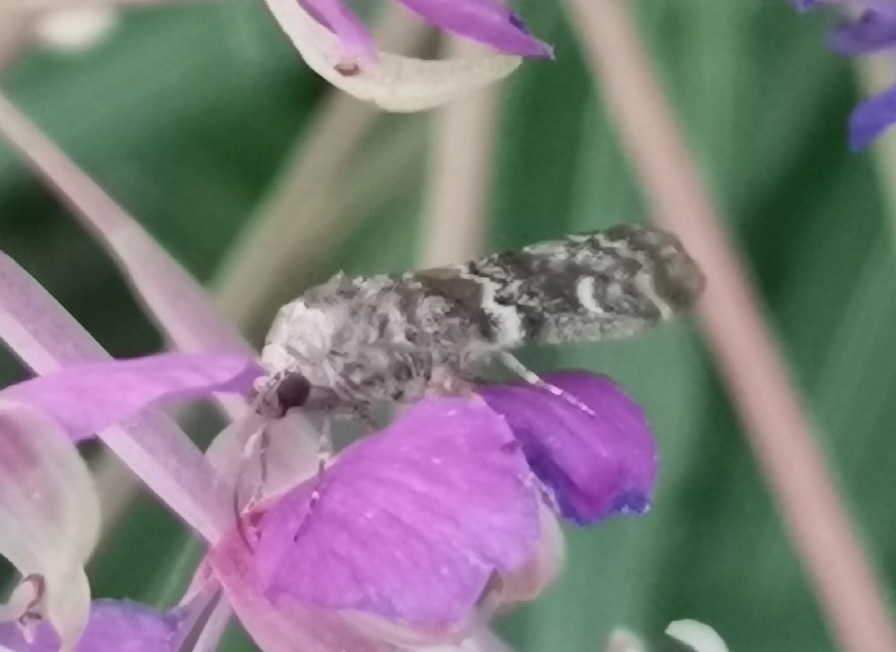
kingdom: Animalia
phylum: Arthropoda
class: Insecta
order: Lepidoptera
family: Pyralidae
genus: Dioryctria
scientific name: Dioryctria schuetzeella
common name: Spruce knot-horn
